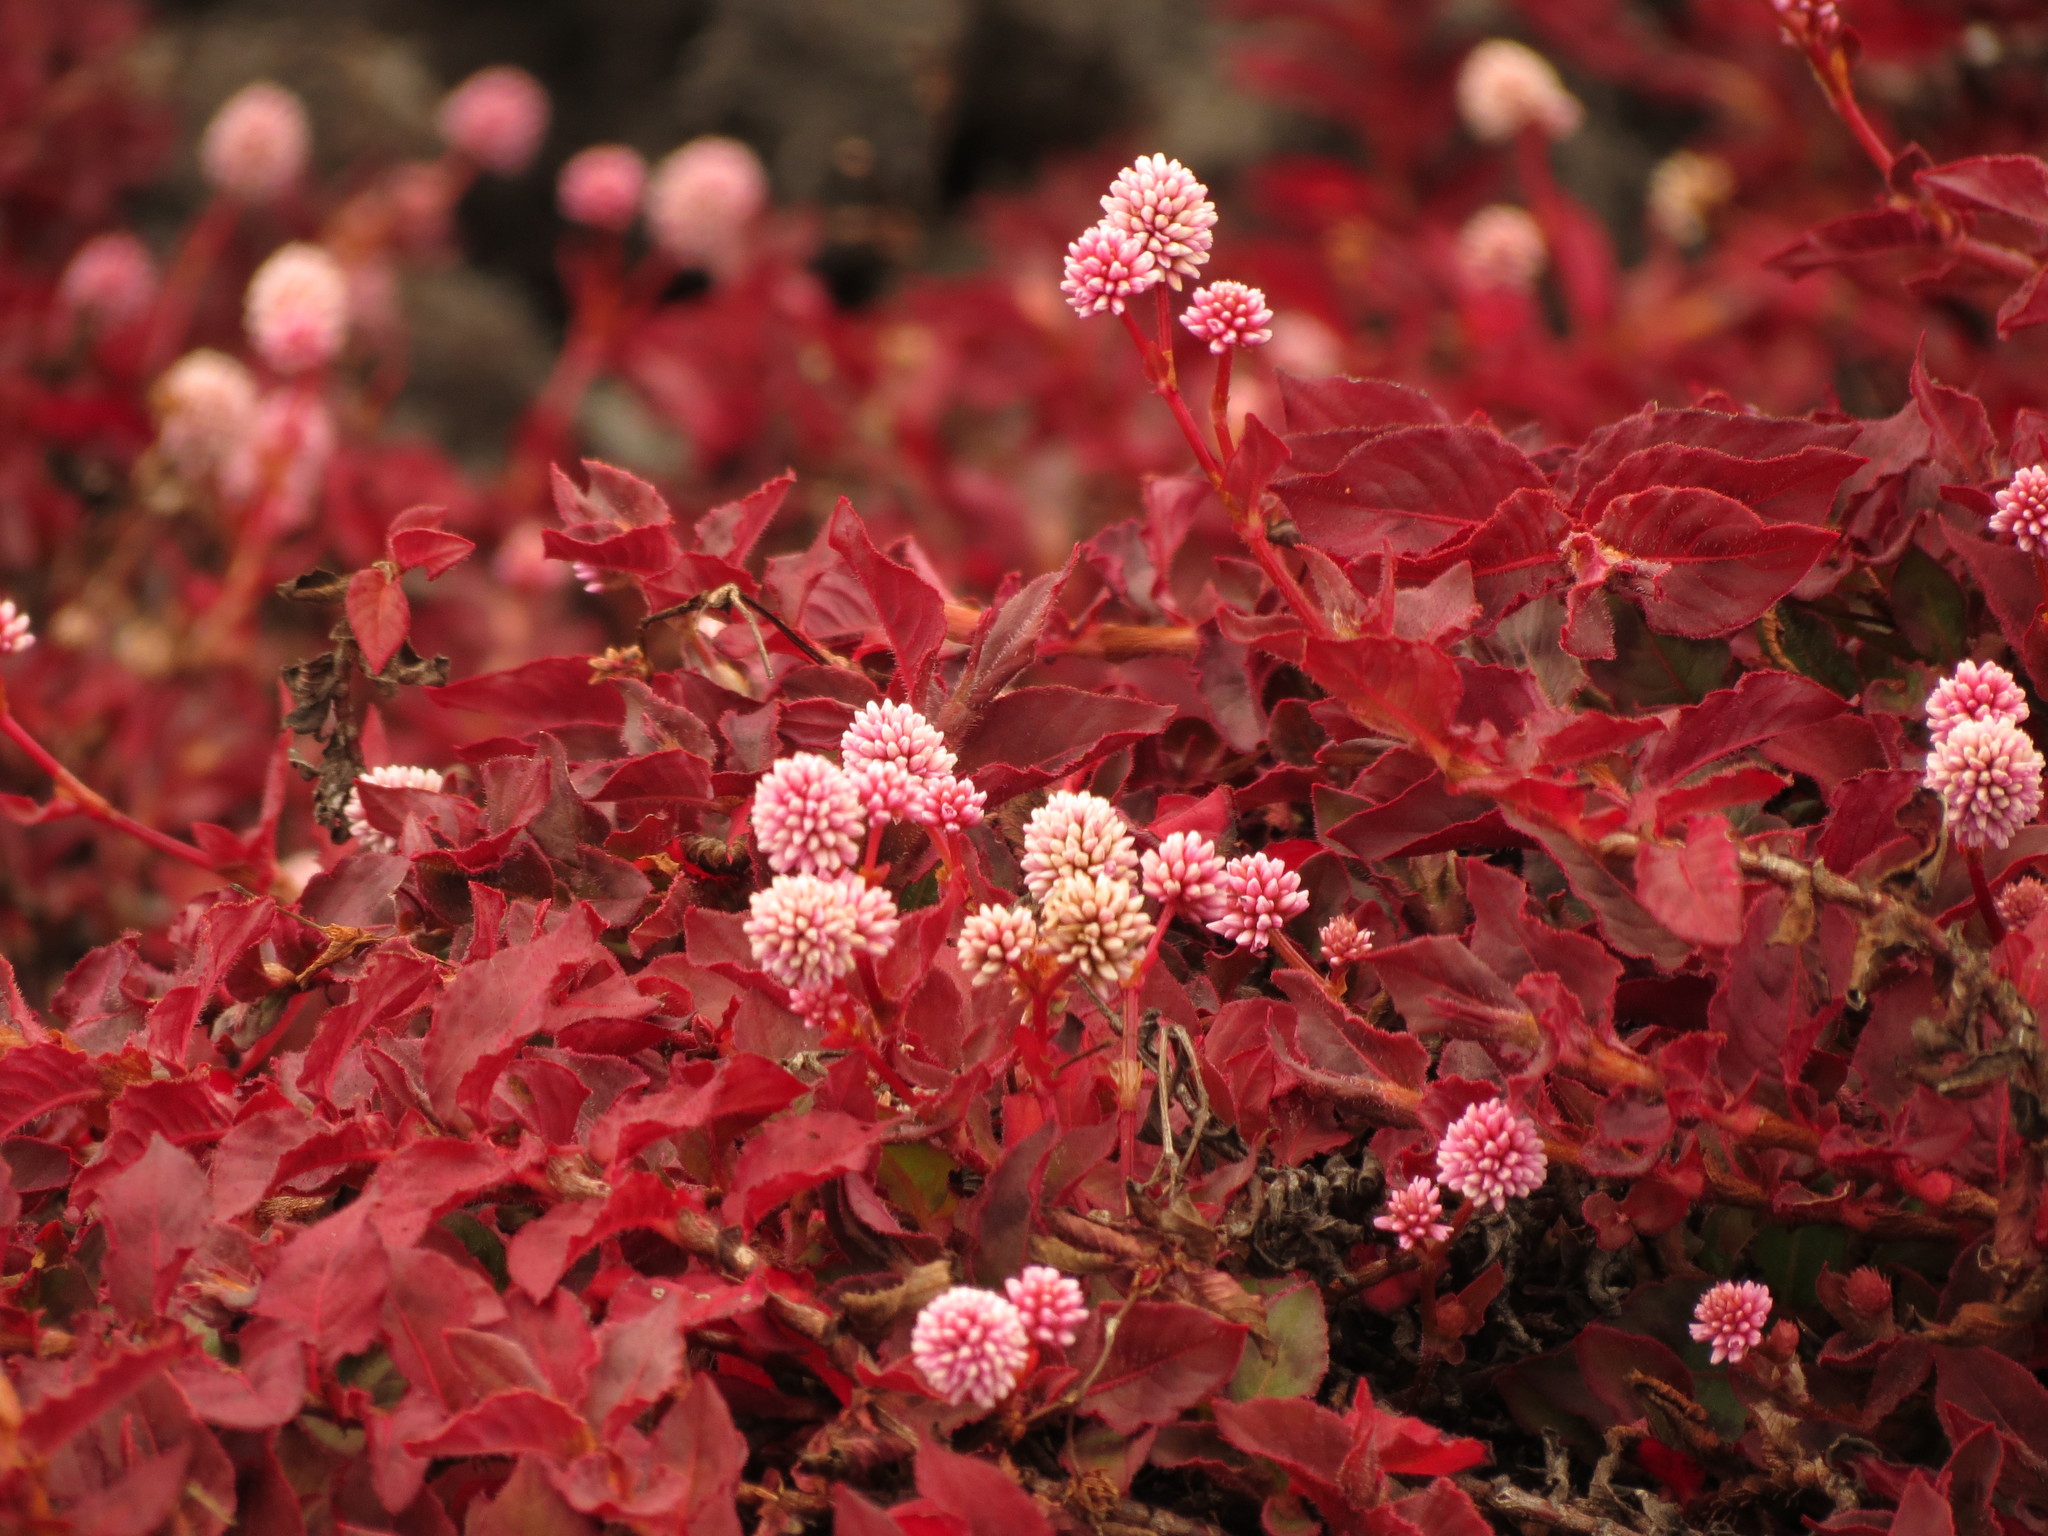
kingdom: Plantae
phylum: Tracheophyta
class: Magnoliopsida
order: Caryophyllales
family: Polygonaceae
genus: Persicaria
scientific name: Persicaria capitata
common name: Pinkhead smartweed
